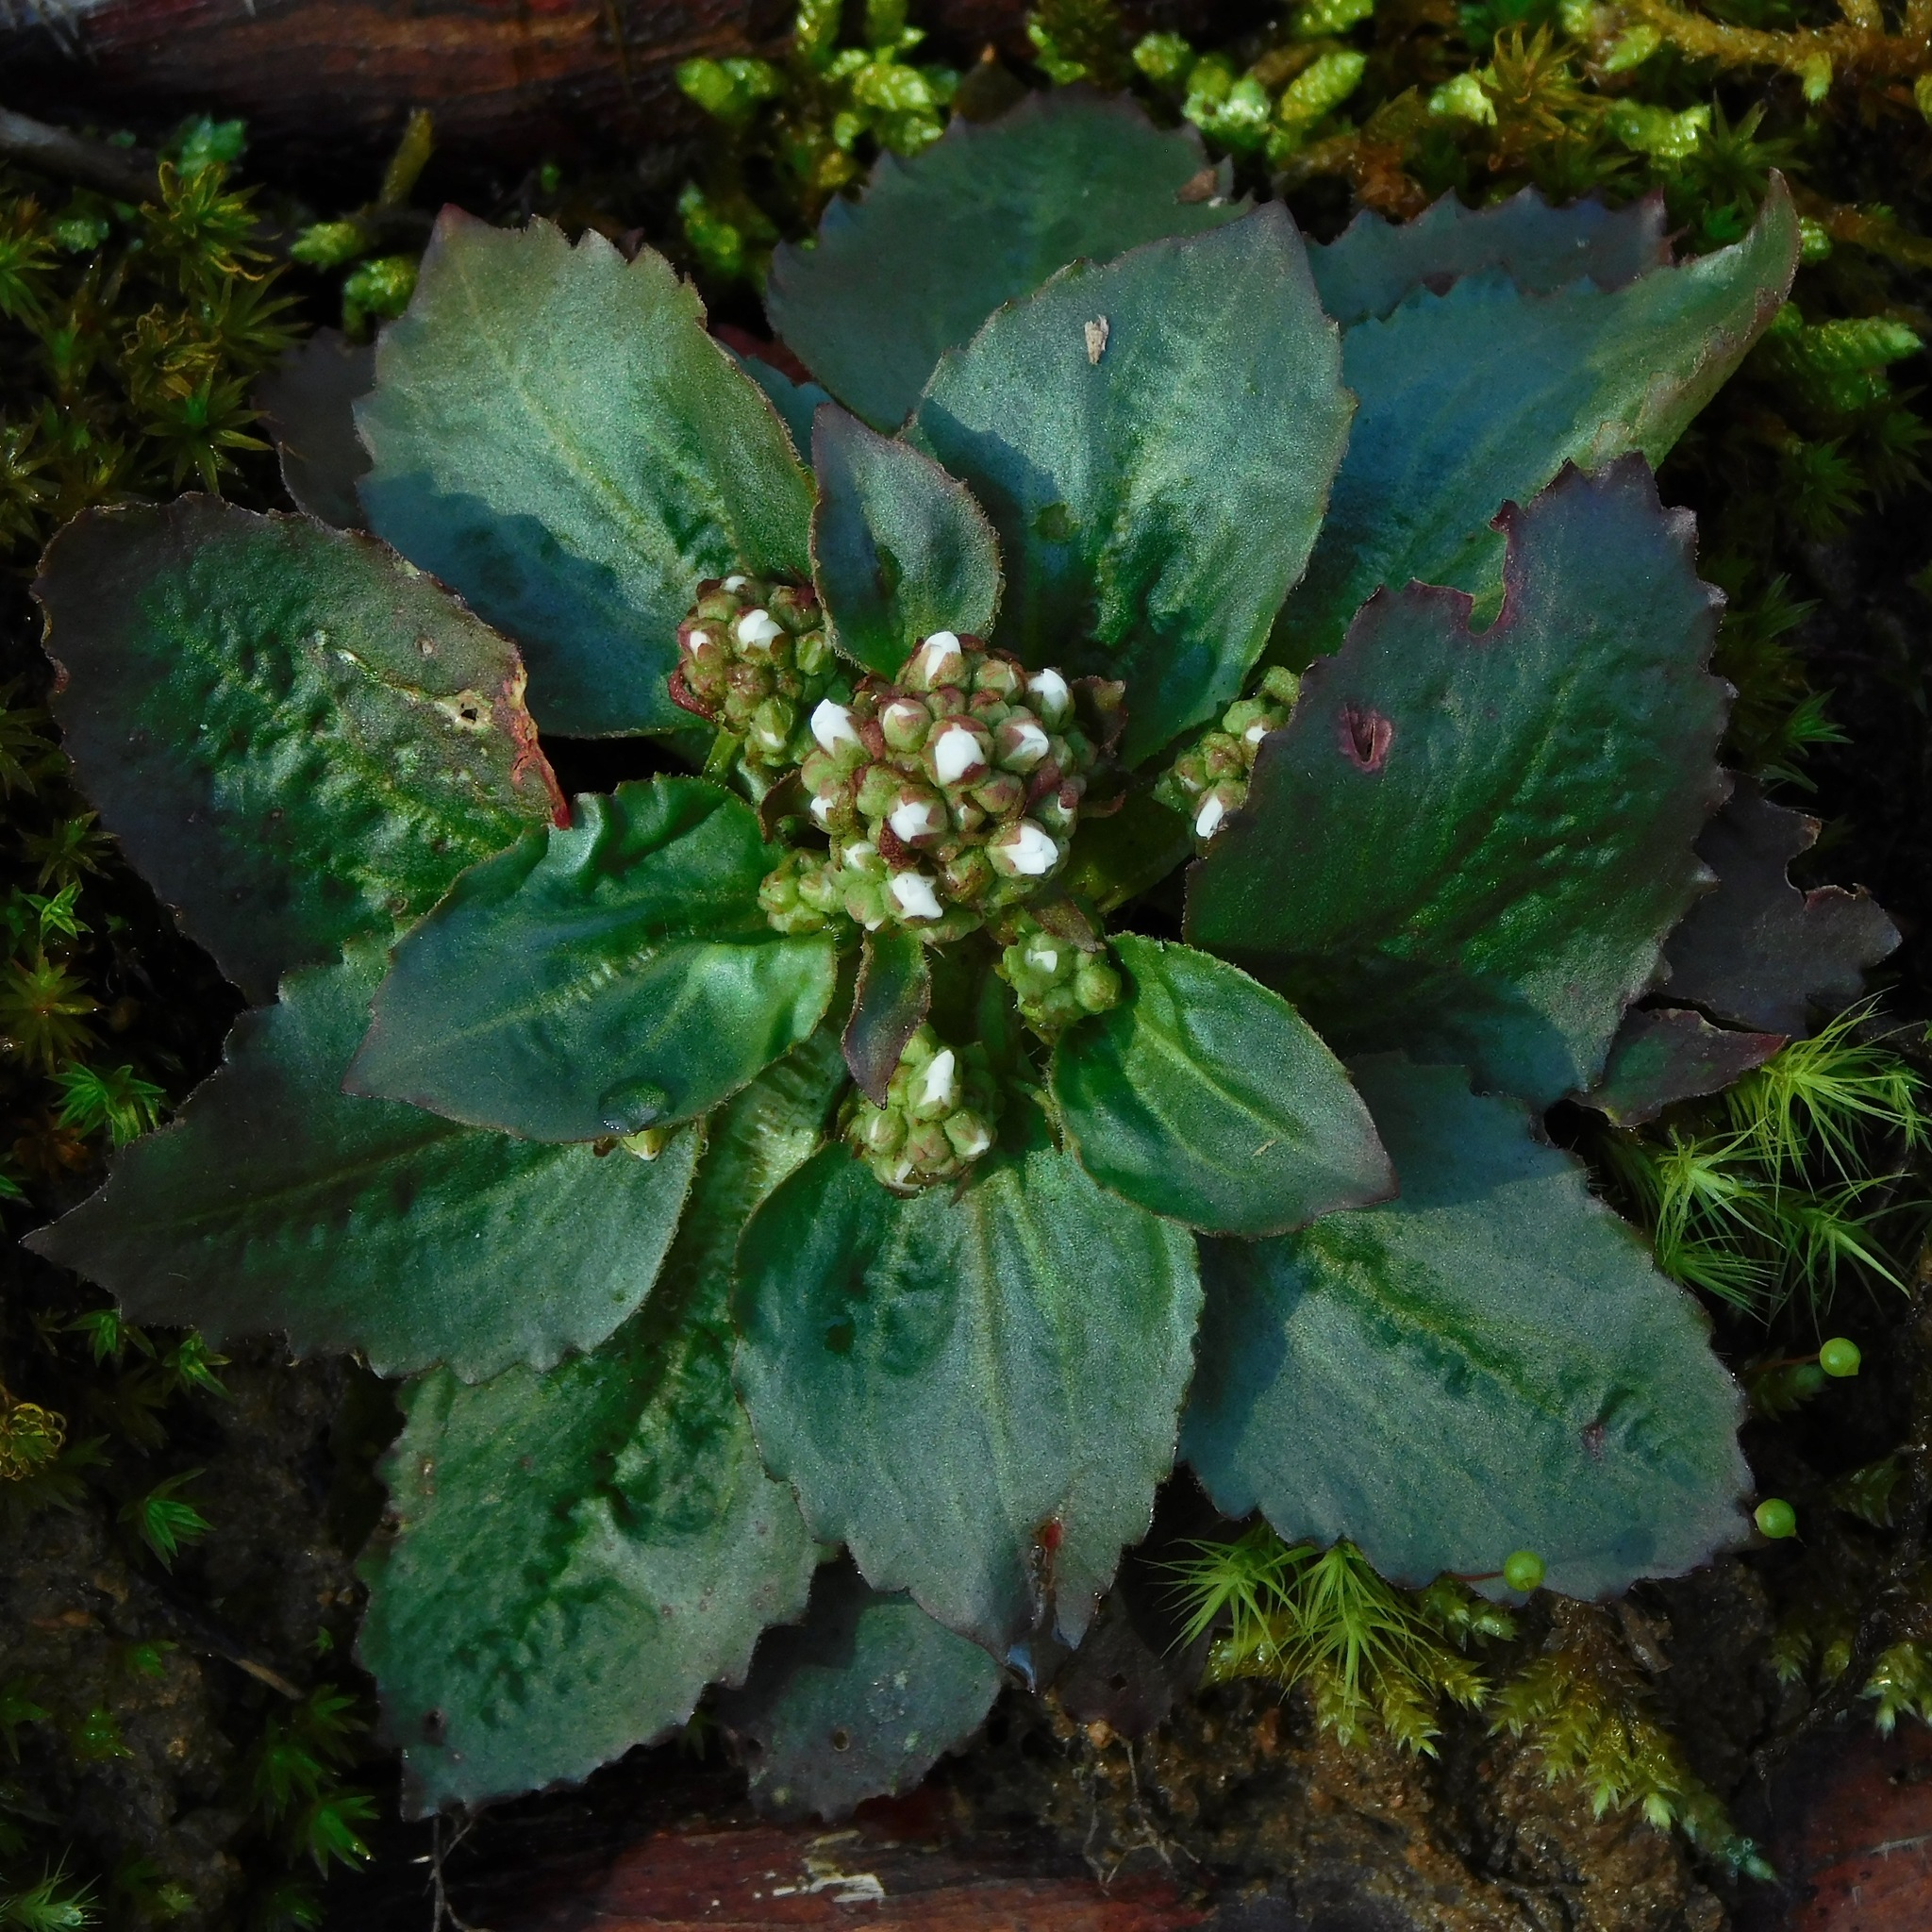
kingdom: Plantae
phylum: Tracheophyta
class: Magnoliopsida
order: Saxifragales
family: Saxifragaceae
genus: Micranthes
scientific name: Micranthes virginiensis
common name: Early saxifrage
